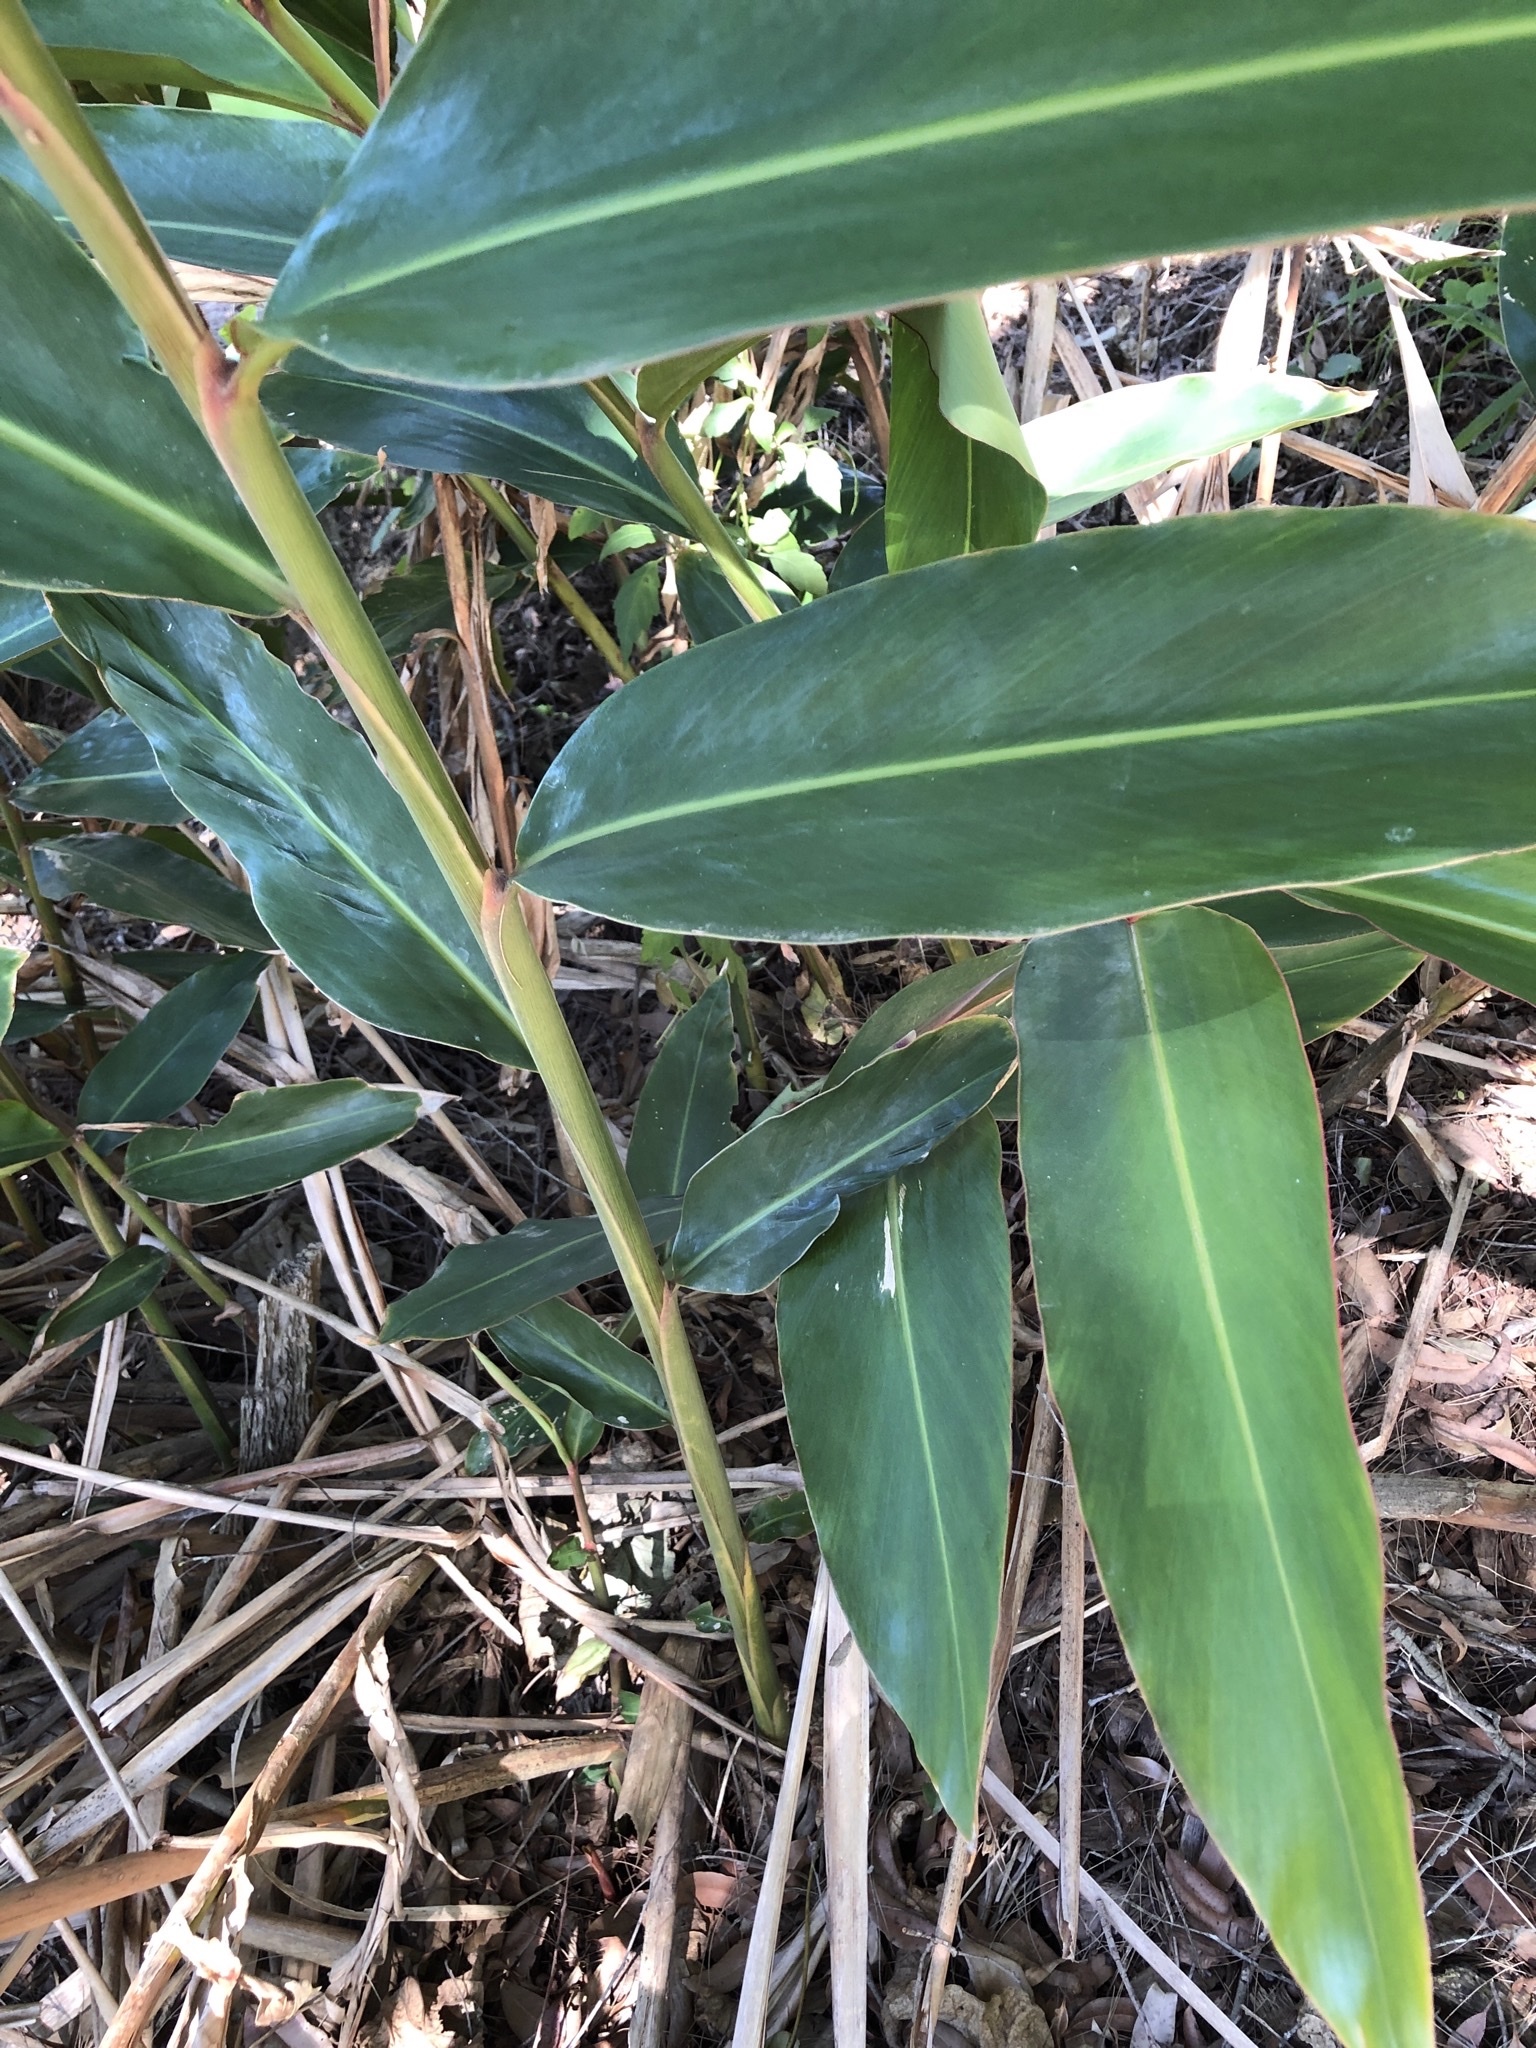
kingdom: Plantae
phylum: Tracheophyta
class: Liliopsida
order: Zingiberales
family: Zingiberaceae
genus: Alpinia
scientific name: Alpinia caerulea
